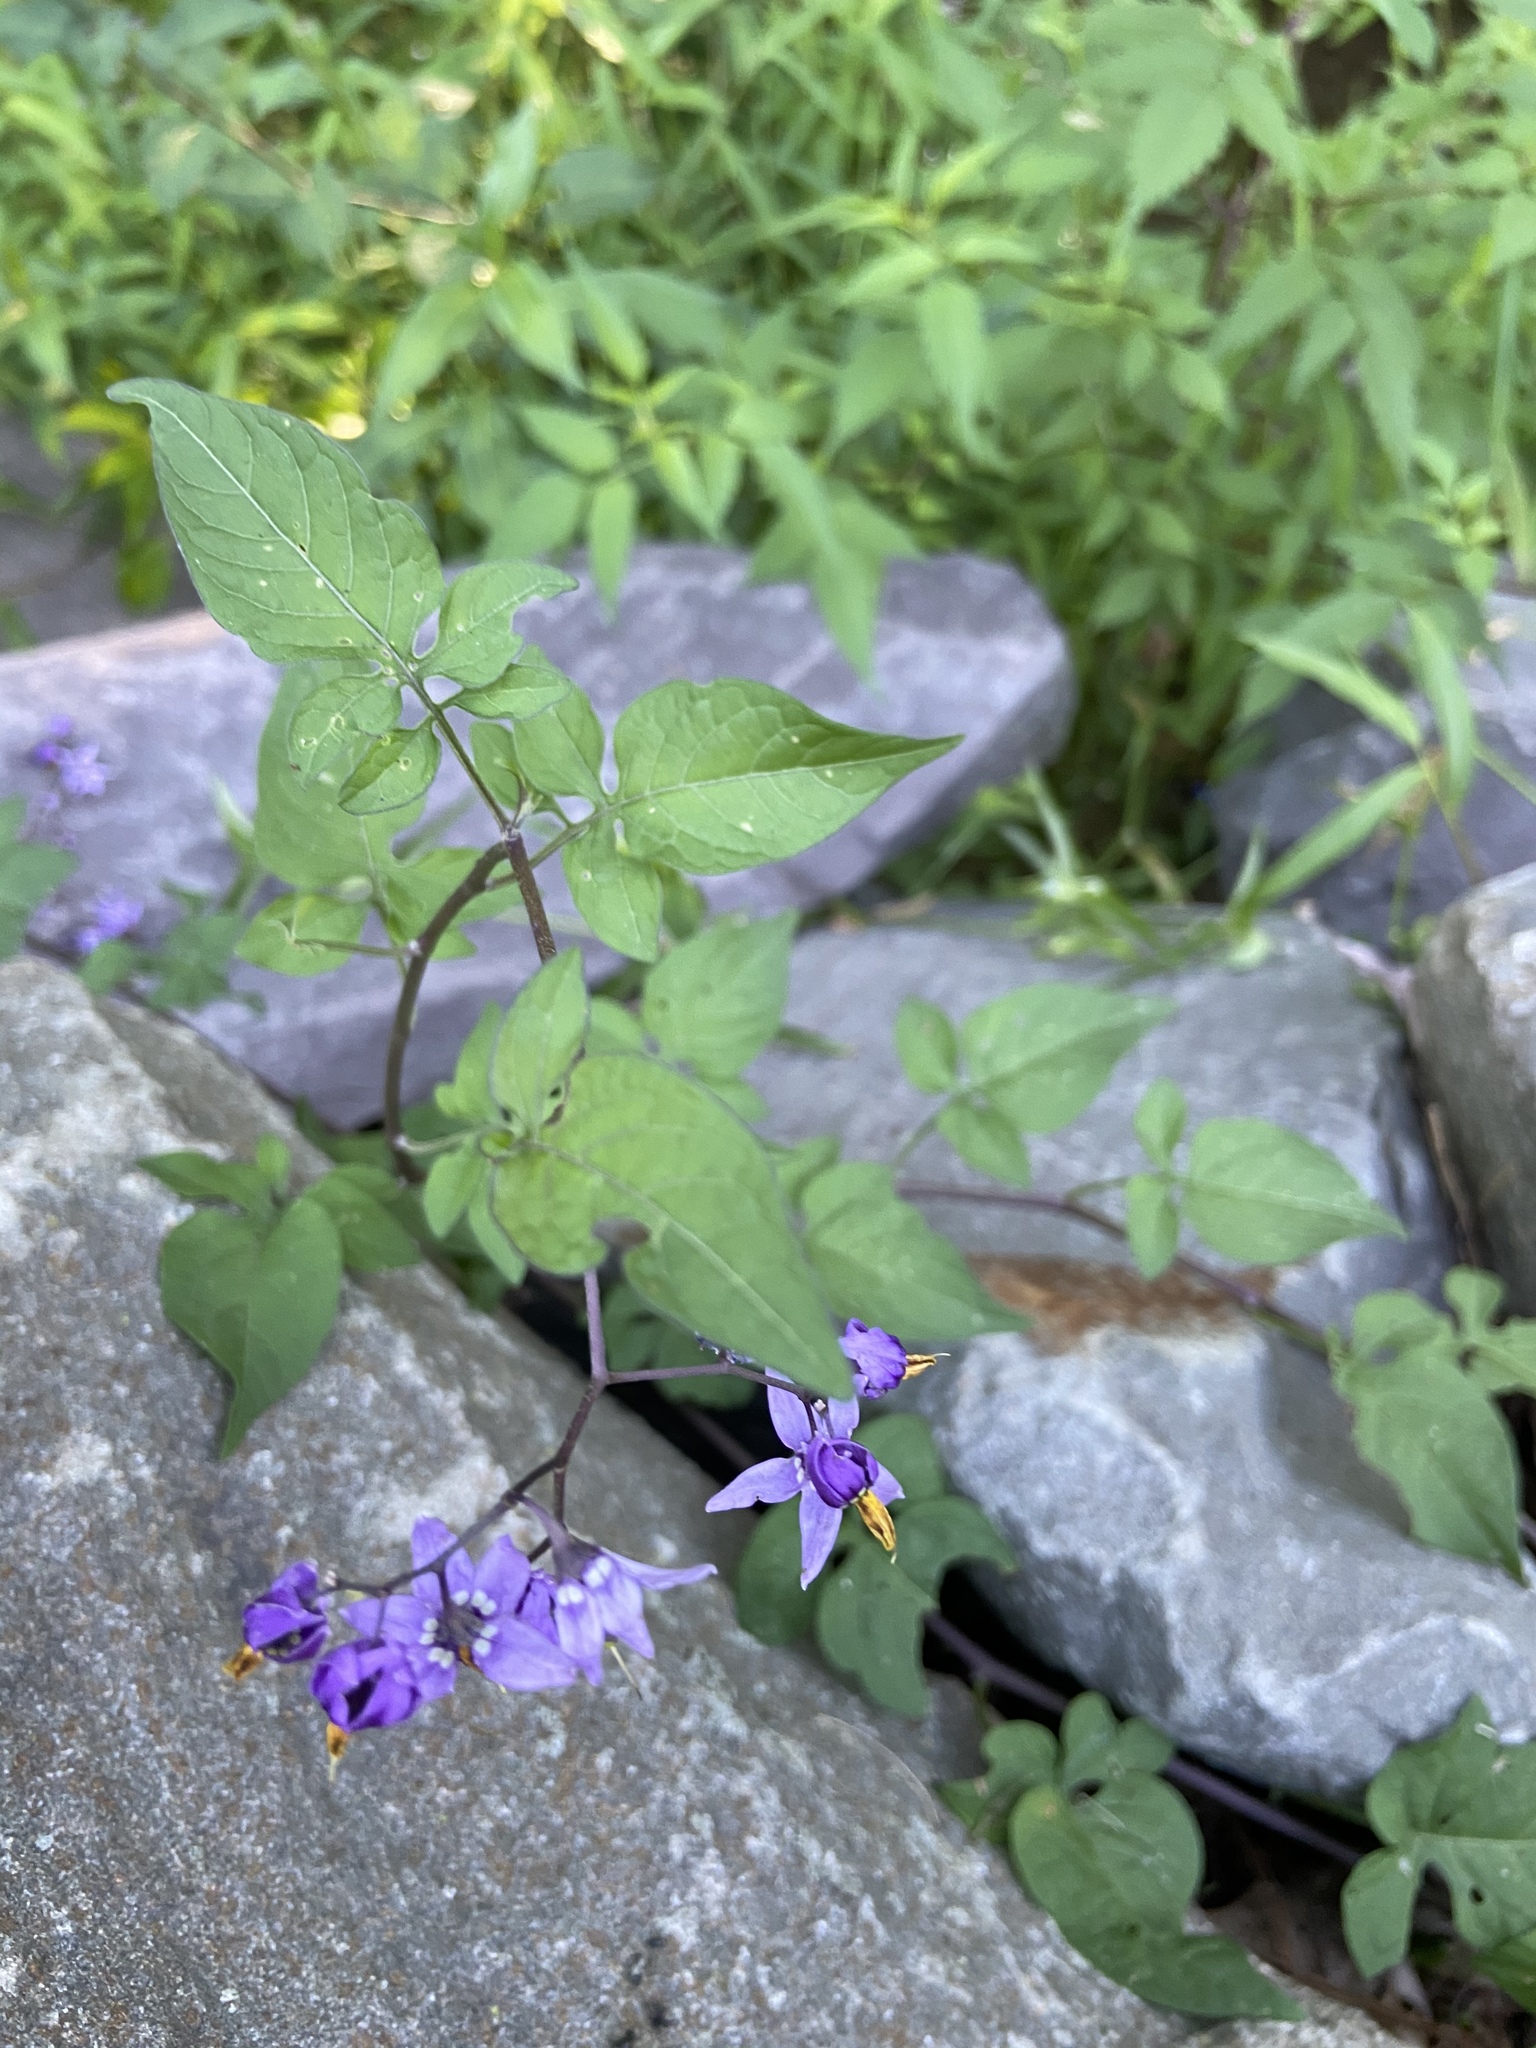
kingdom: Plantae
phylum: Tracheophyta
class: Magnoliopsida
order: Solanales
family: Solanaceae
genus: Solanum
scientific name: Solanum dulcamara
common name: Climbing nightshade
